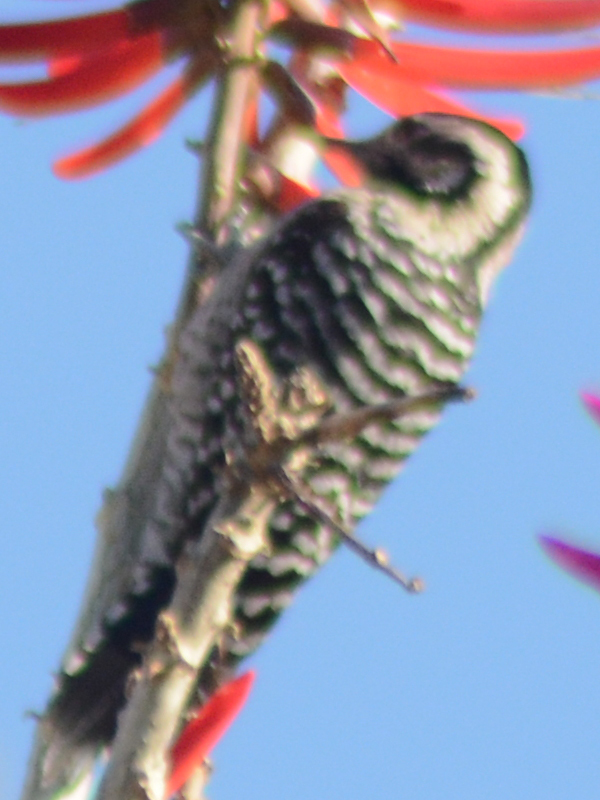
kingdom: Animalia
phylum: Chordata
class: Aves
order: Piciformes
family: Picidae
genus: Dryobates
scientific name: Dryobates scalaris
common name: Ladder-backed woodpecker
